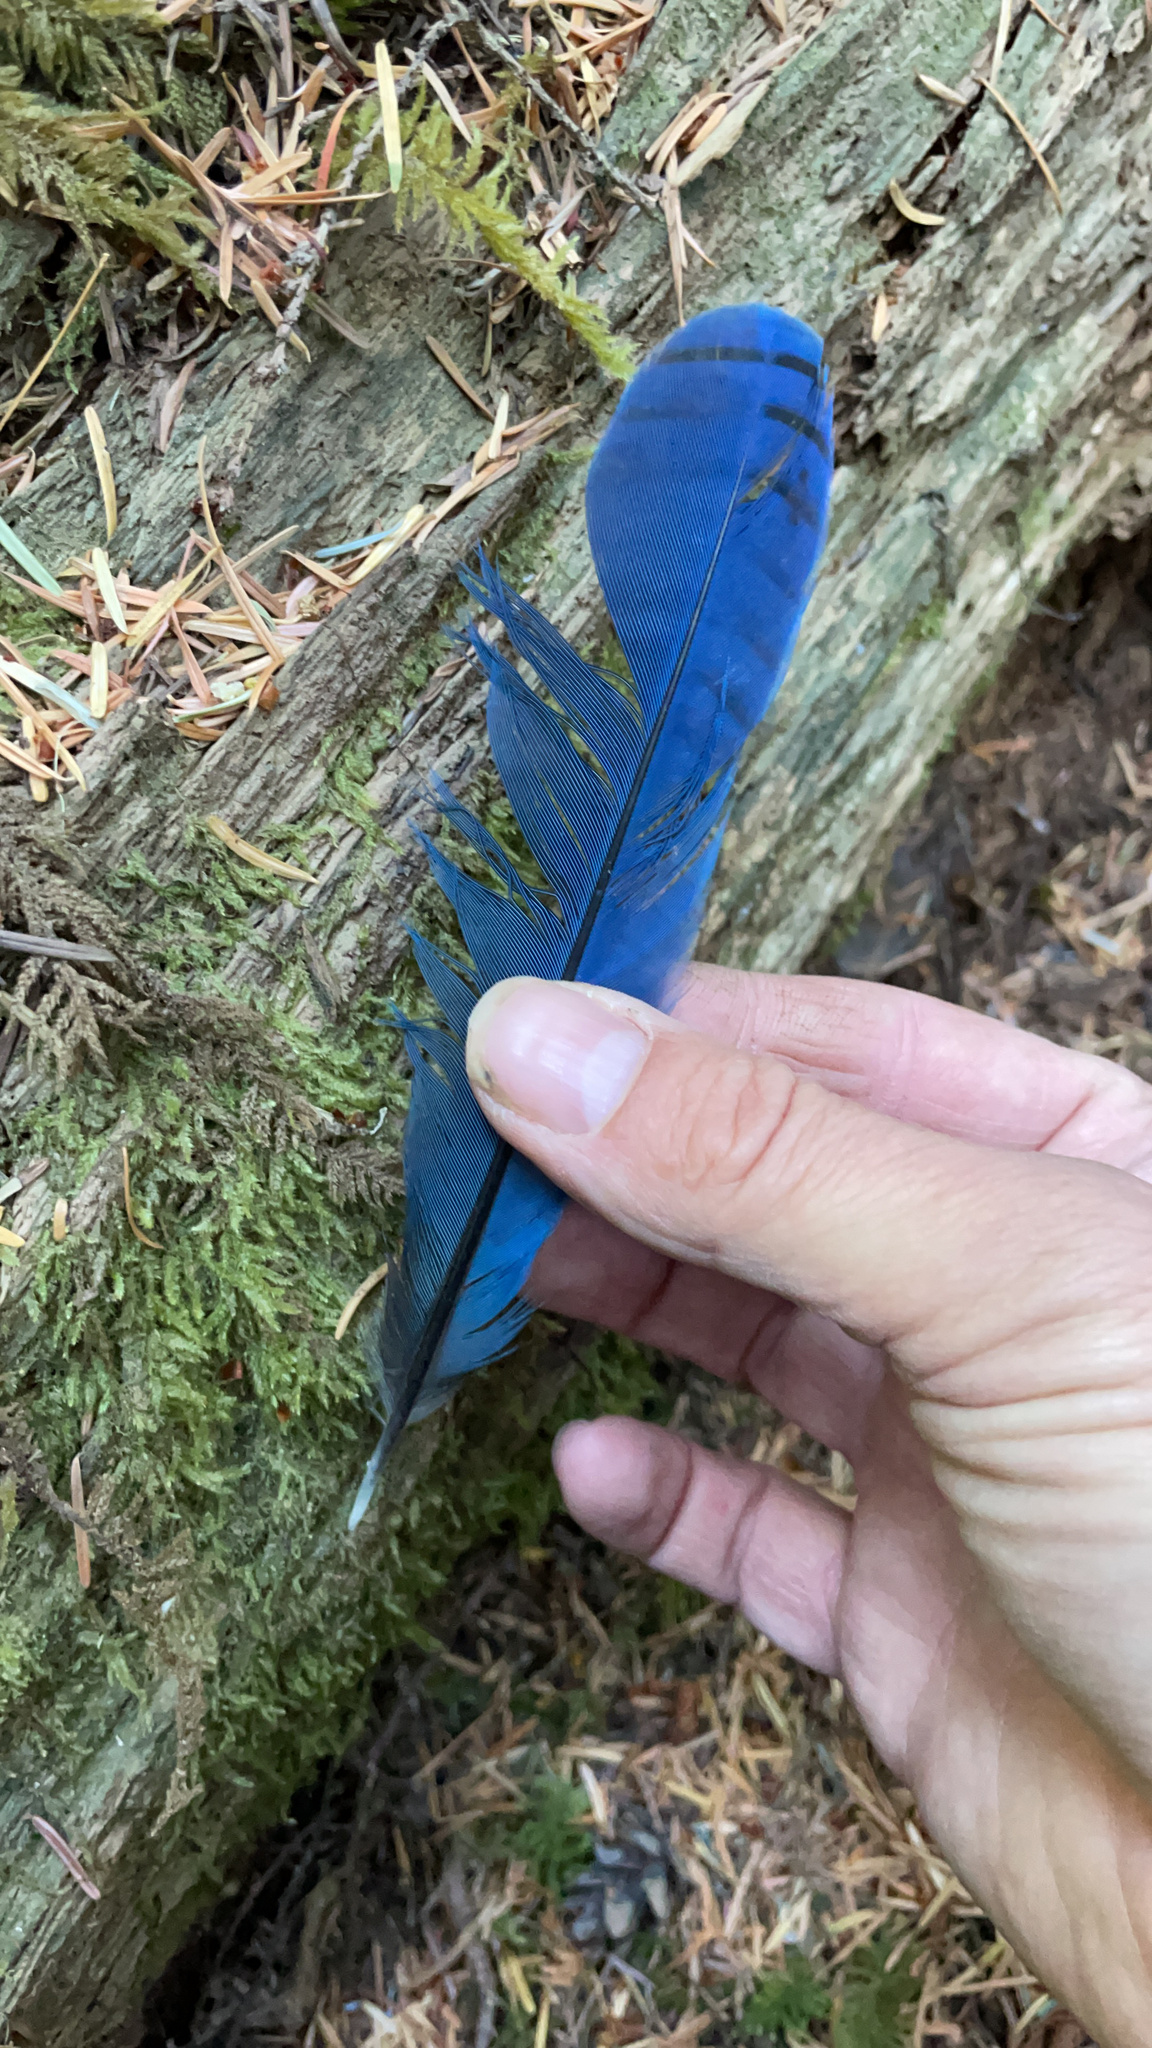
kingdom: Animalia
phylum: Chordata
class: Aves
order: Passeriformes
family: Corvidae
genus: Cyanocitta
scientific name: Cyanocitta stelleri
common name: Steller's jay
